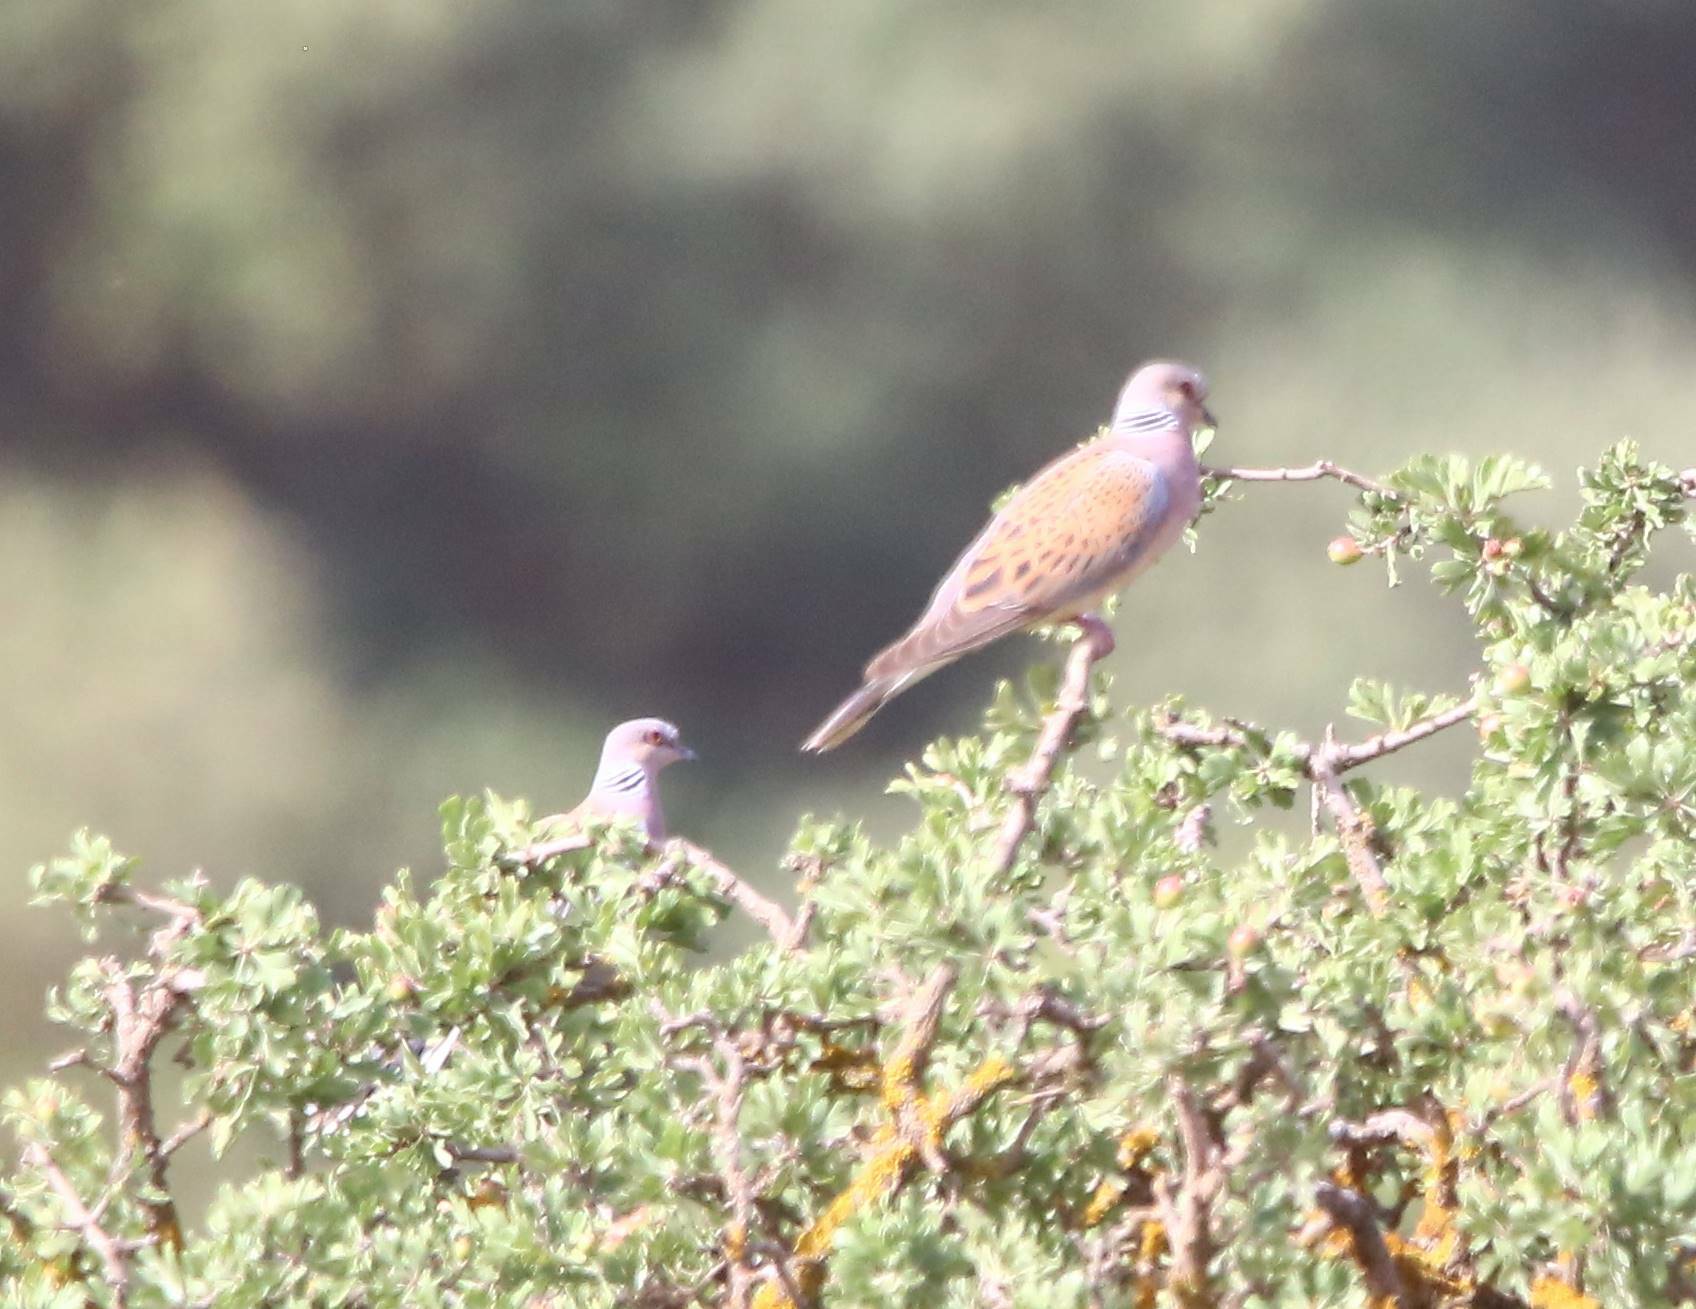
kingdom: Animalia
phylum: Chordata
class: Aves
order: Columbiformes
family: Columbidae
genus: Streptopelia
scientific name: Streptopelia turtur
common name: European turtle dove
